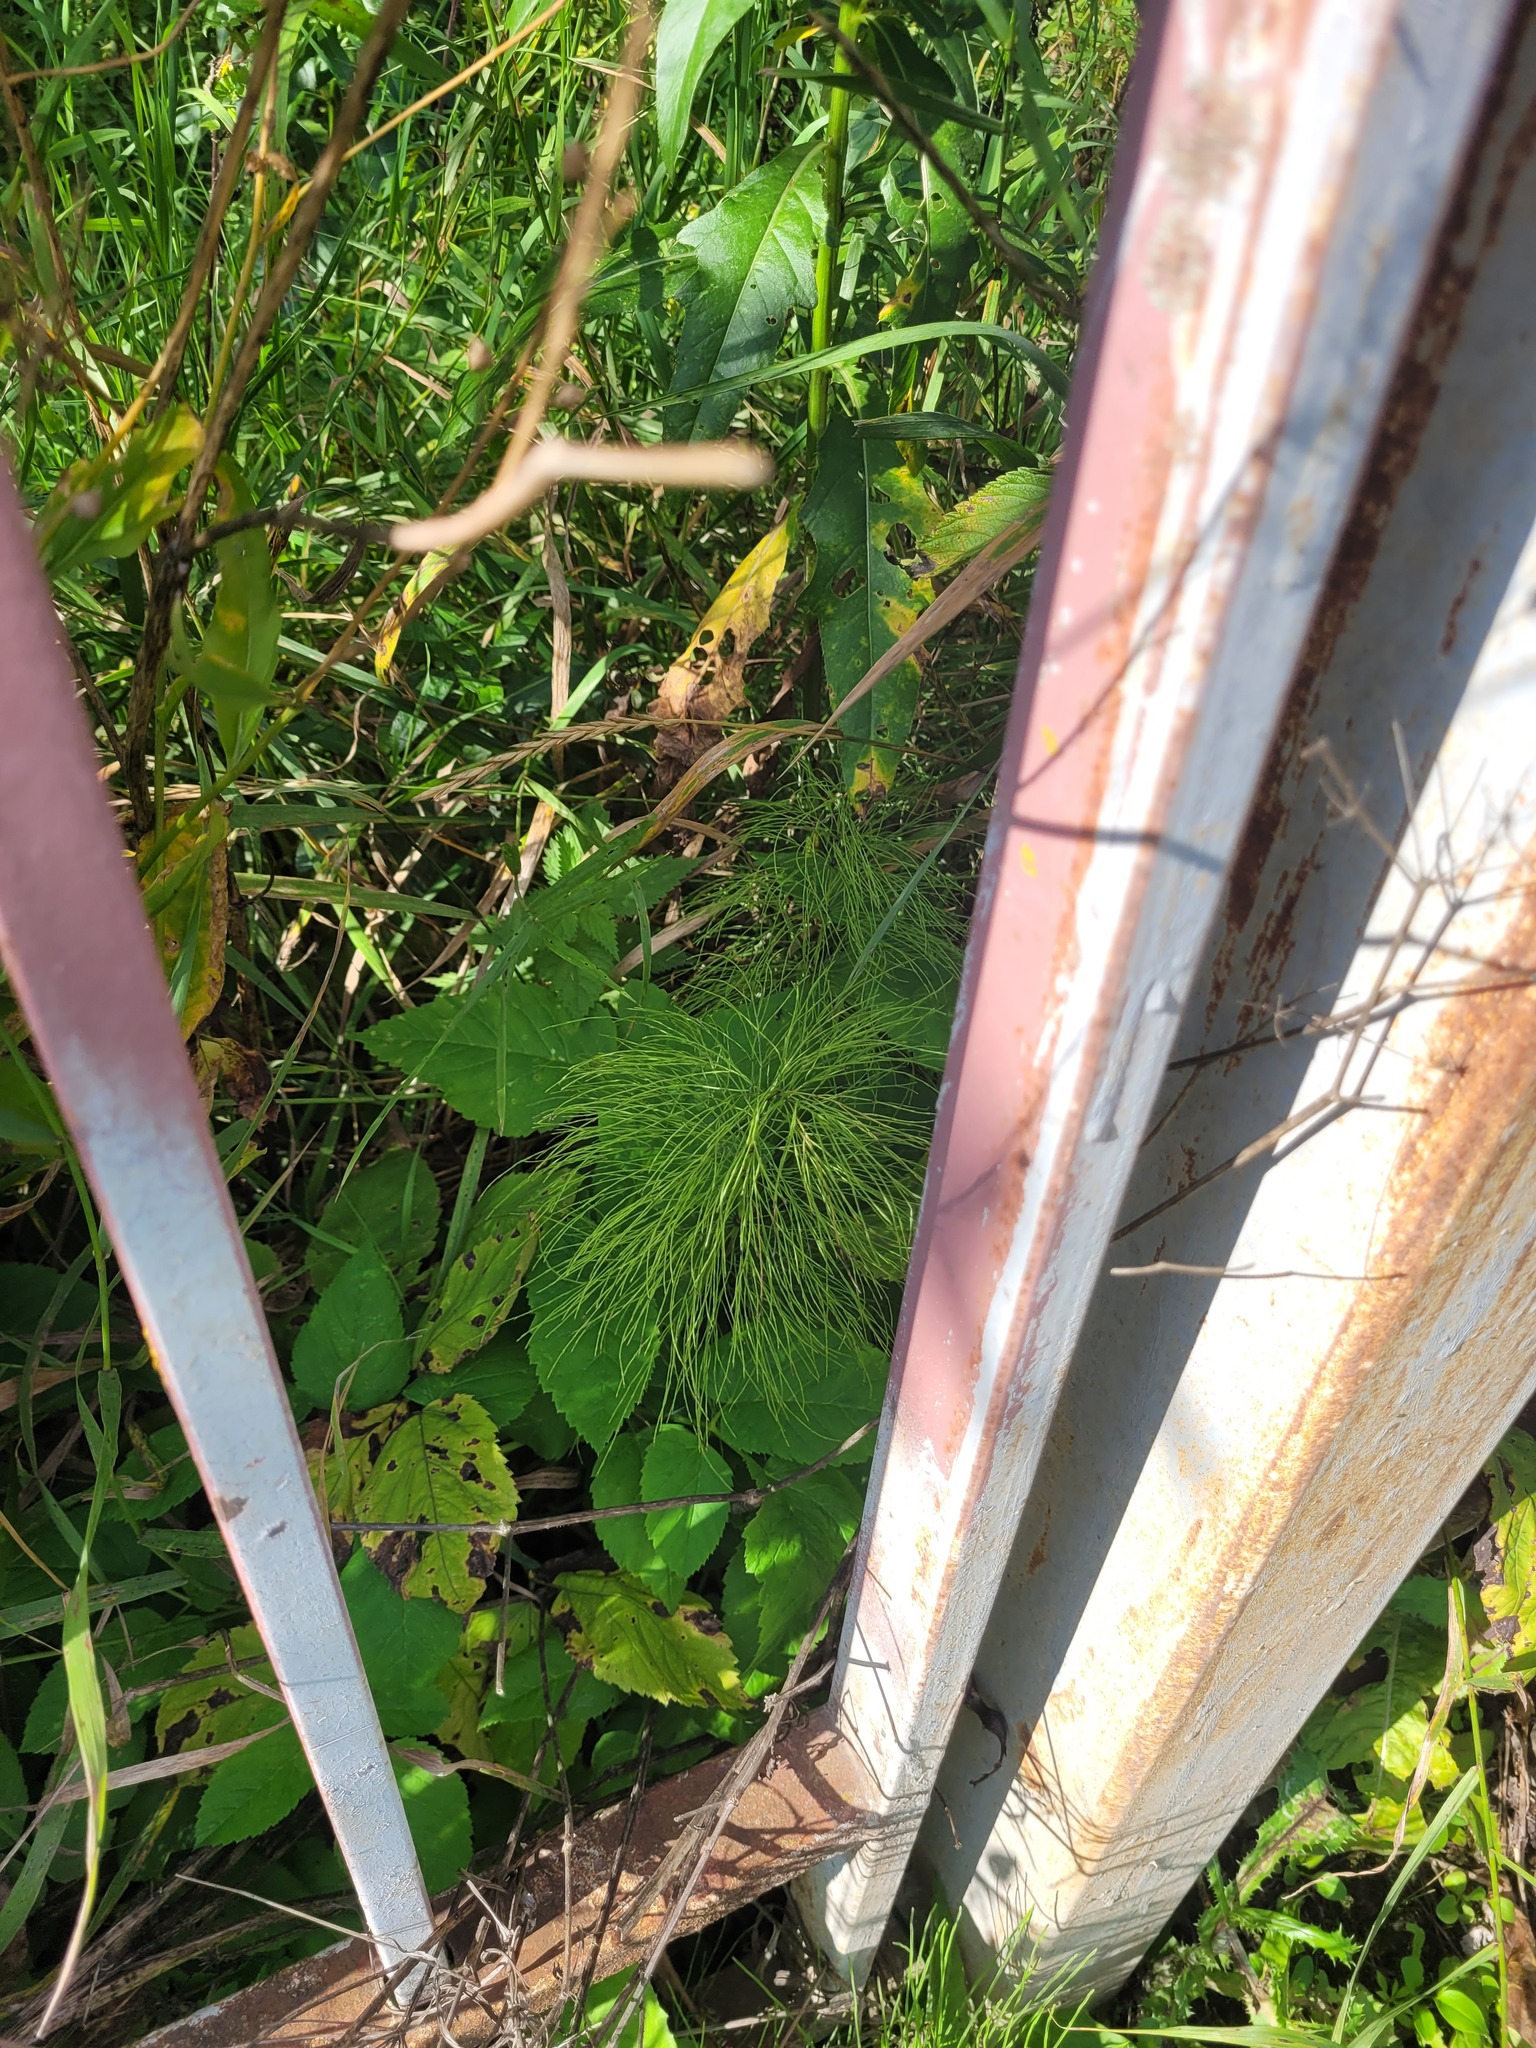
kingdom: Plantae
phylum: Tracheophyta
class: Polypodiopsida
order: Equisetales
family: Equisetaceae
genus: Equisetum
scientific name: Equisetum sylvaticum
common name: Wood horsetail
